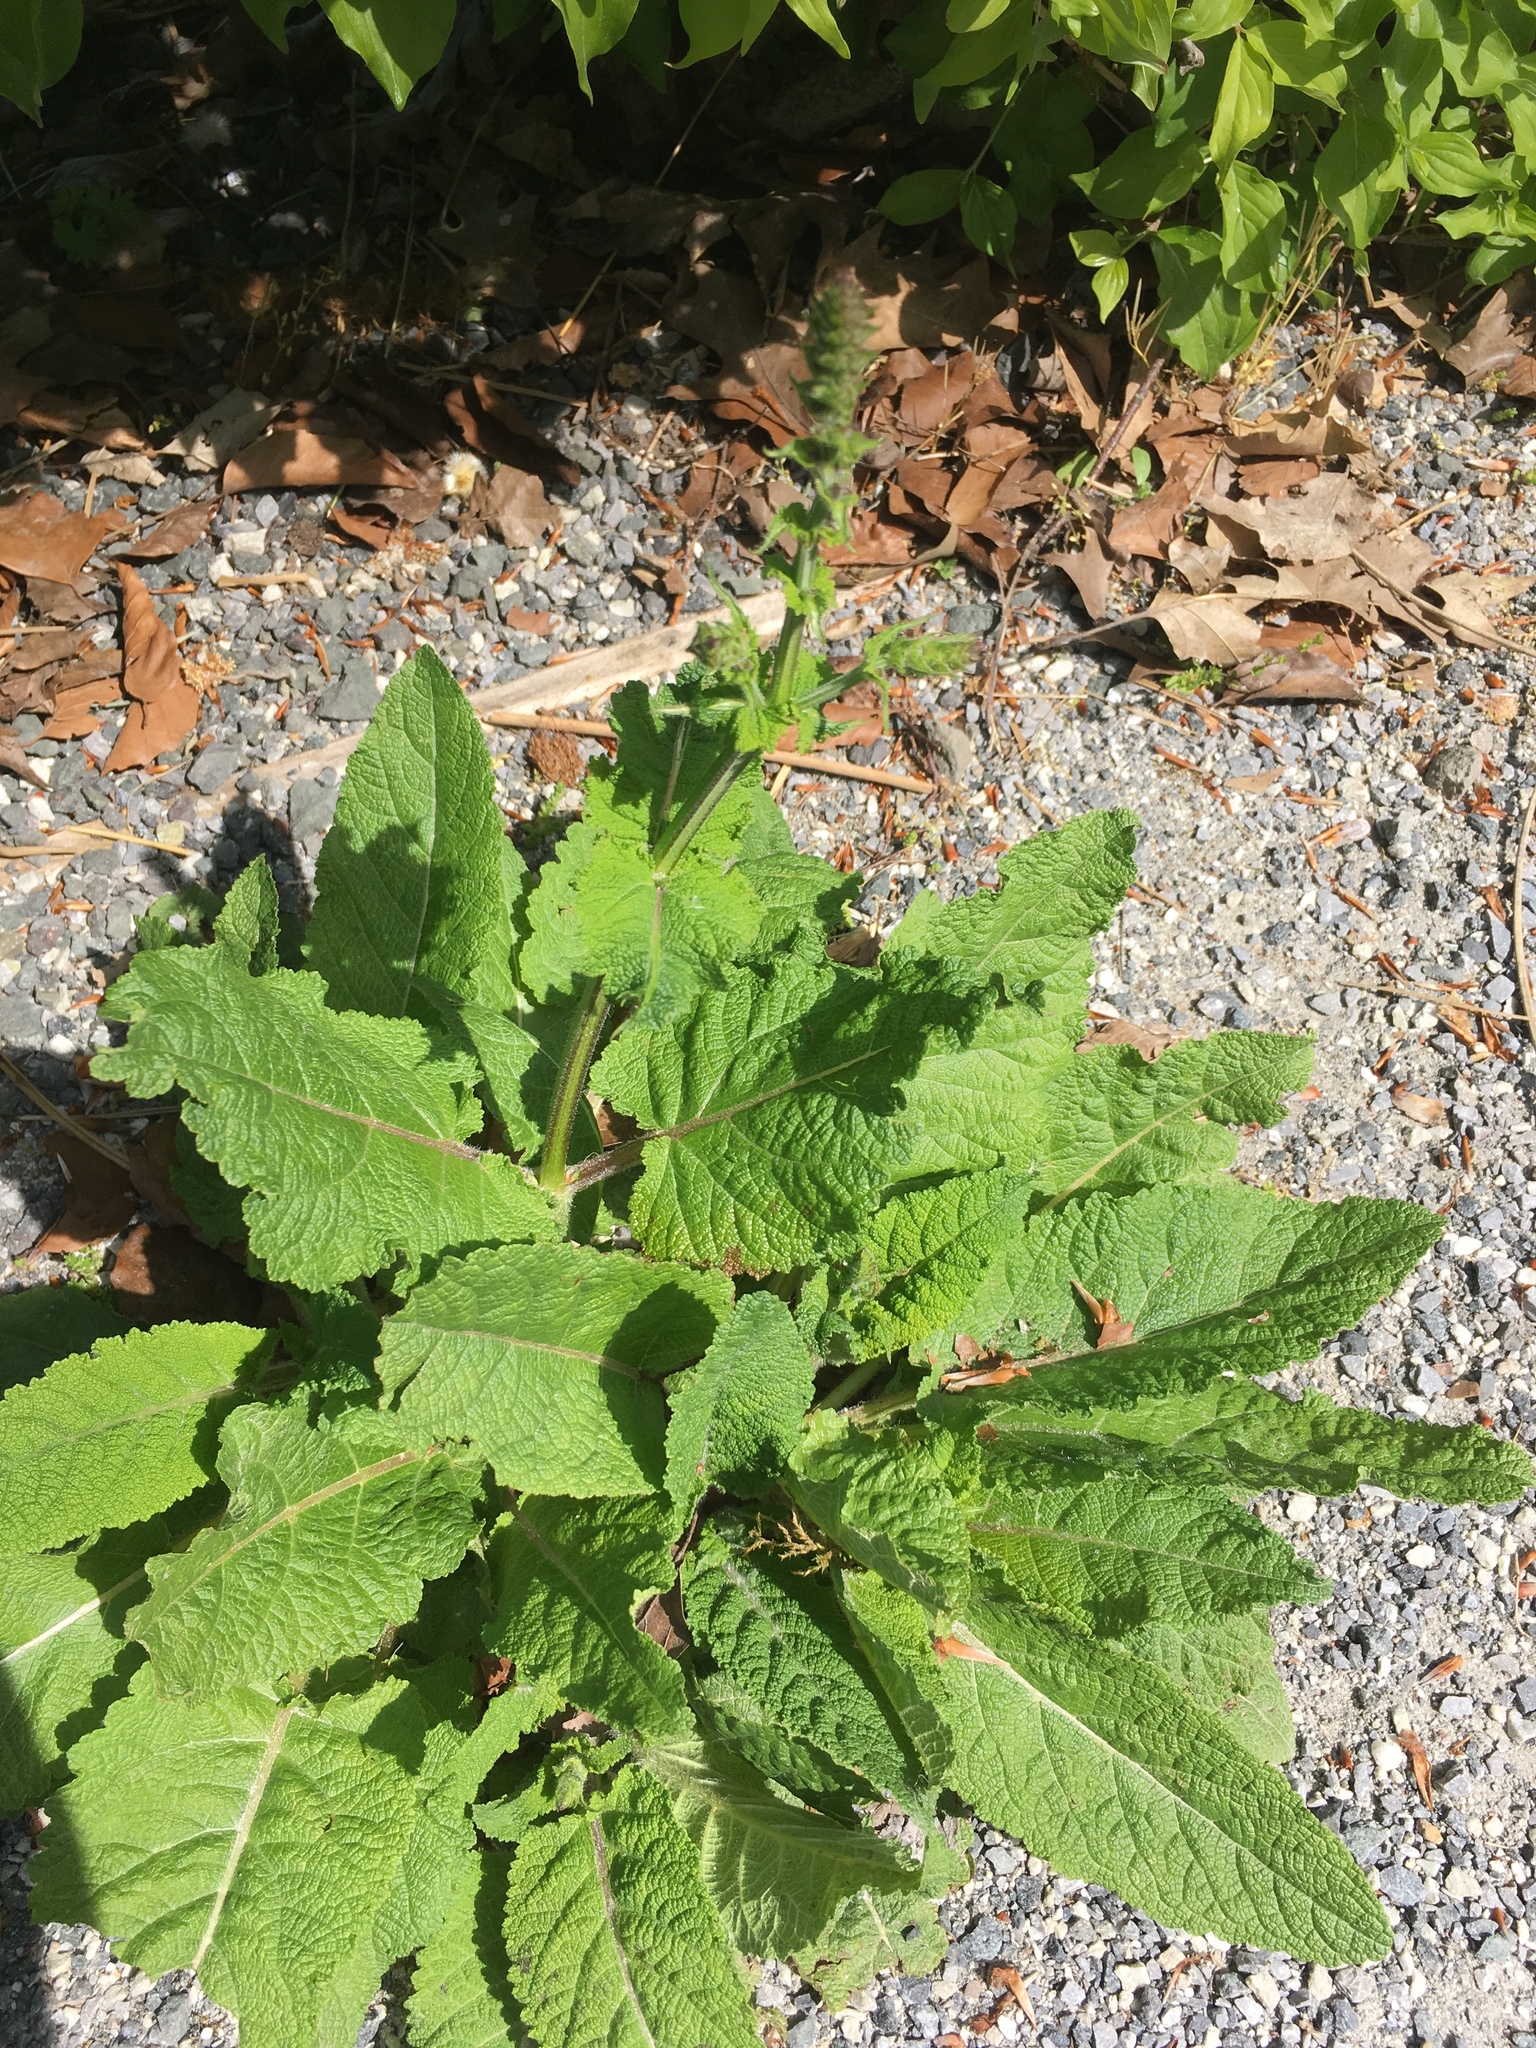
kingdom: Plantae
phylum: Tracheophyta
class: Magnoliopsida
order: Lamiales
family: Lamiaceae
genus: Salvia
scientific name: Salvia pratensis
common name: Meadow sage
